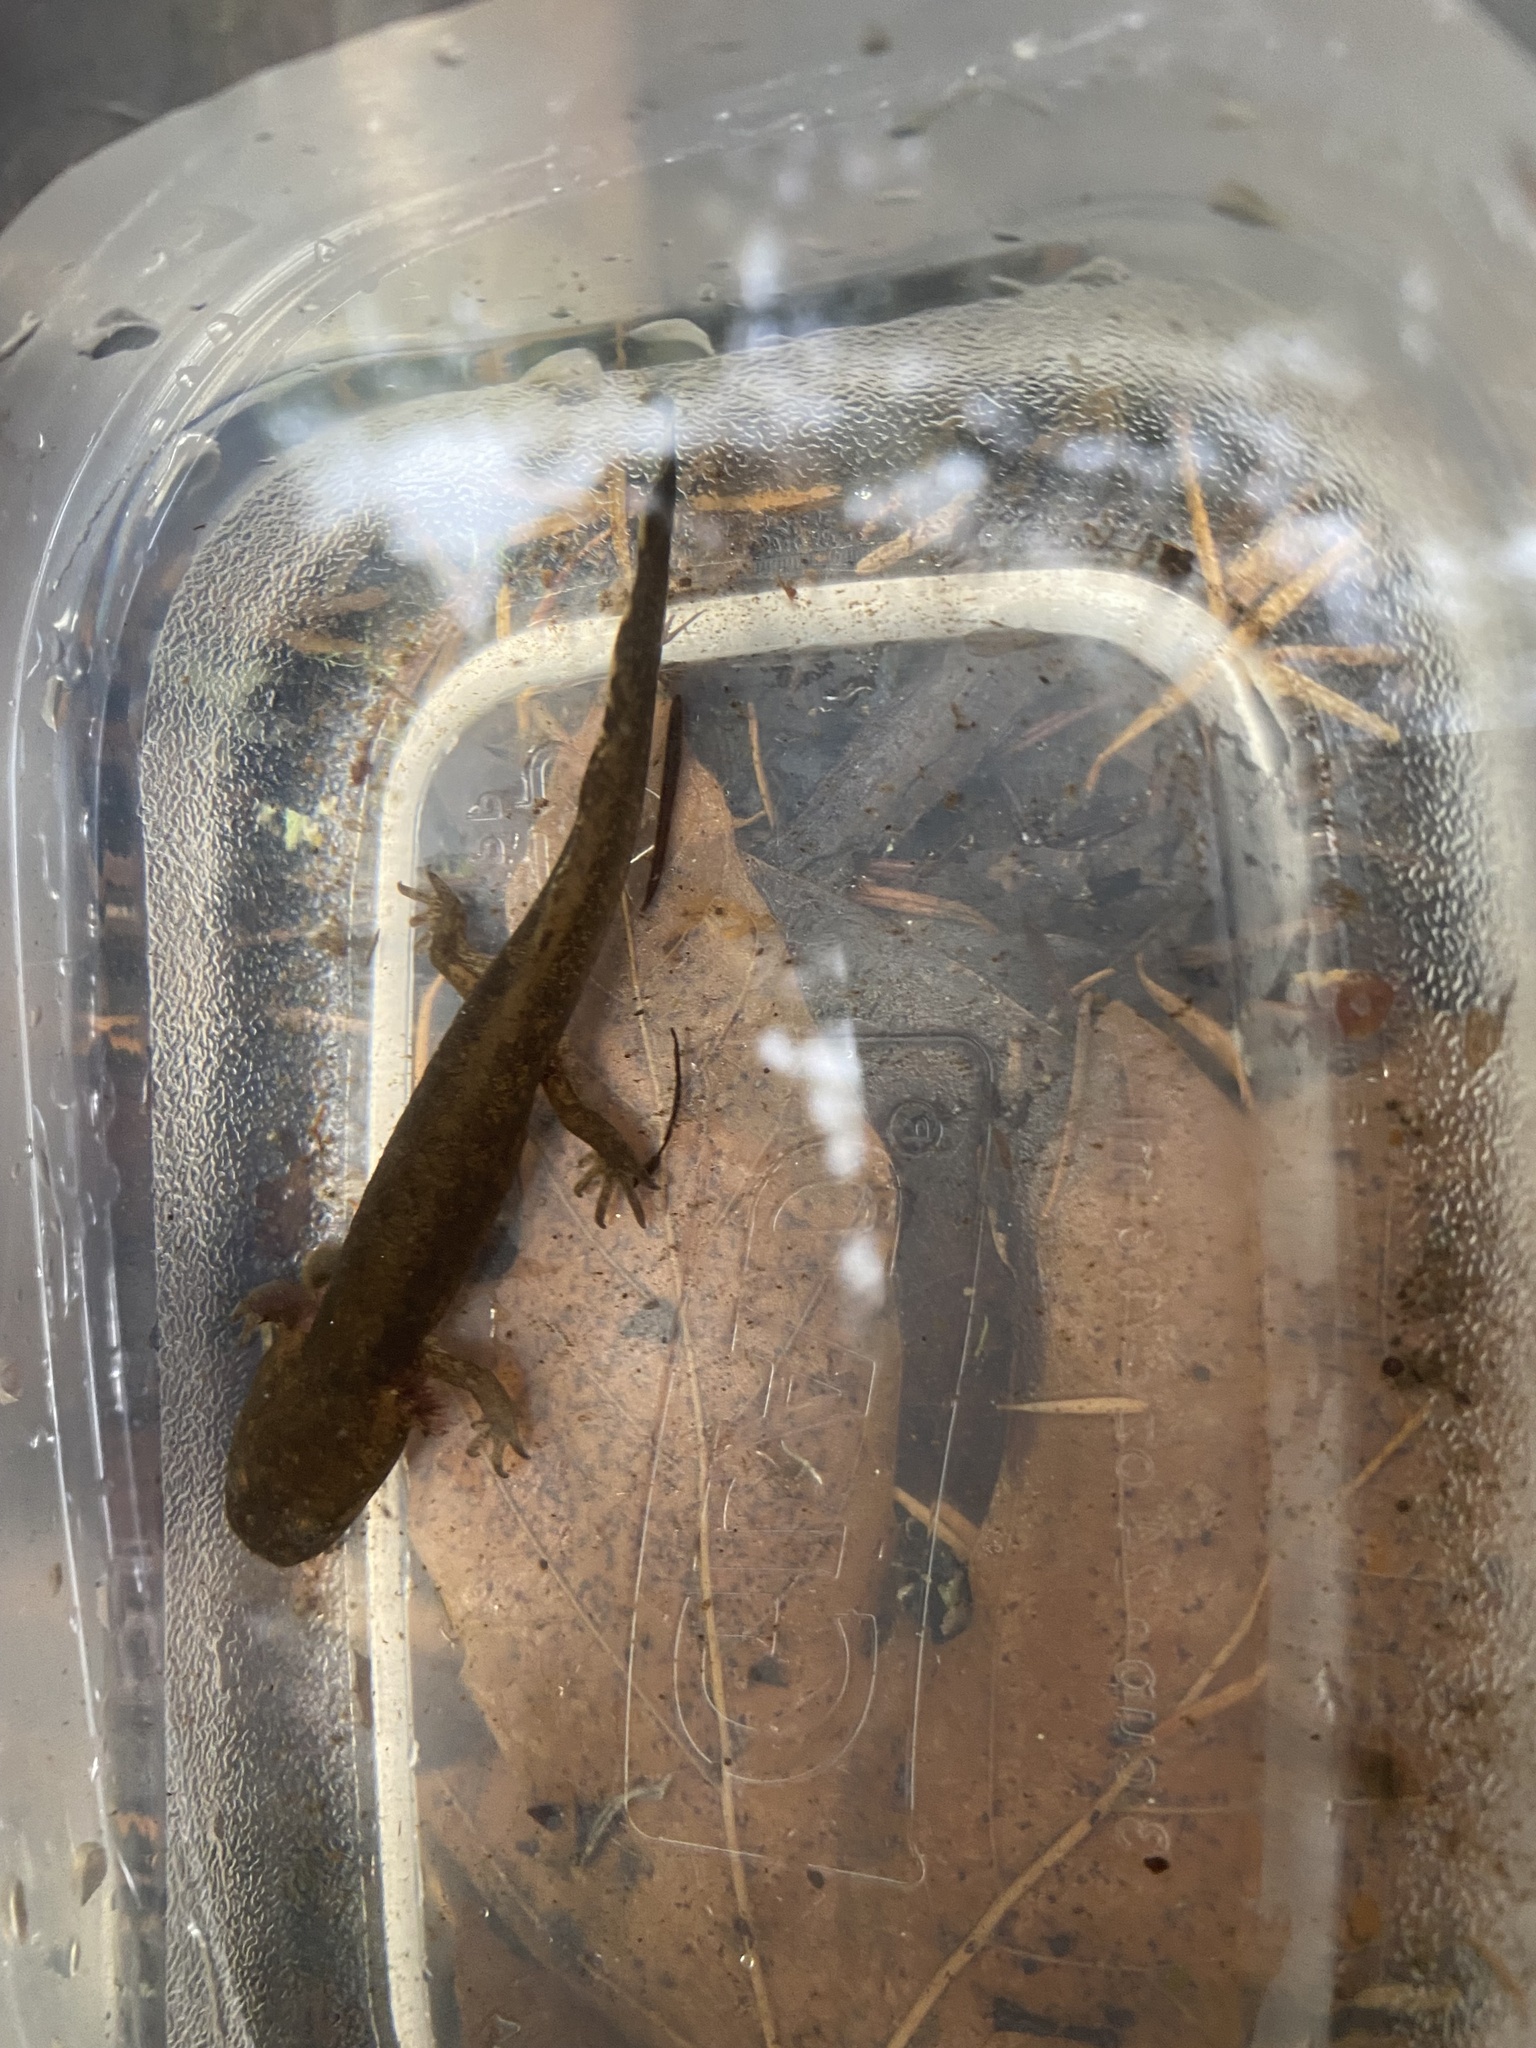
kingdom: Animalia
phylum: Chordata
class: Amphibia
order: Caudata
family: Ambystomatidae
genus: Dicamptodon
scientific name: Dicamptodon ensatus
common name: California giant salamander
